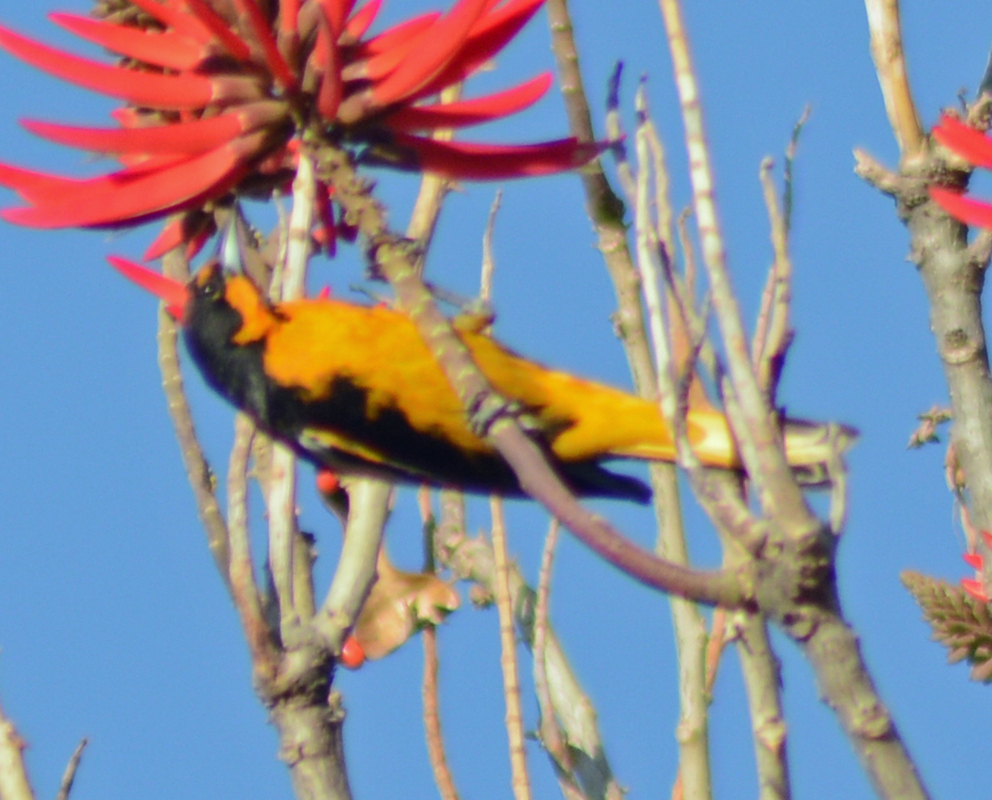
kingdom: Animalia
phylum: Chordata
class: Aves
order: Passeriformes
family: Icteridae
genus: Icterus
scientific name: Icterus abeillei
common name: Black-backed oriole
